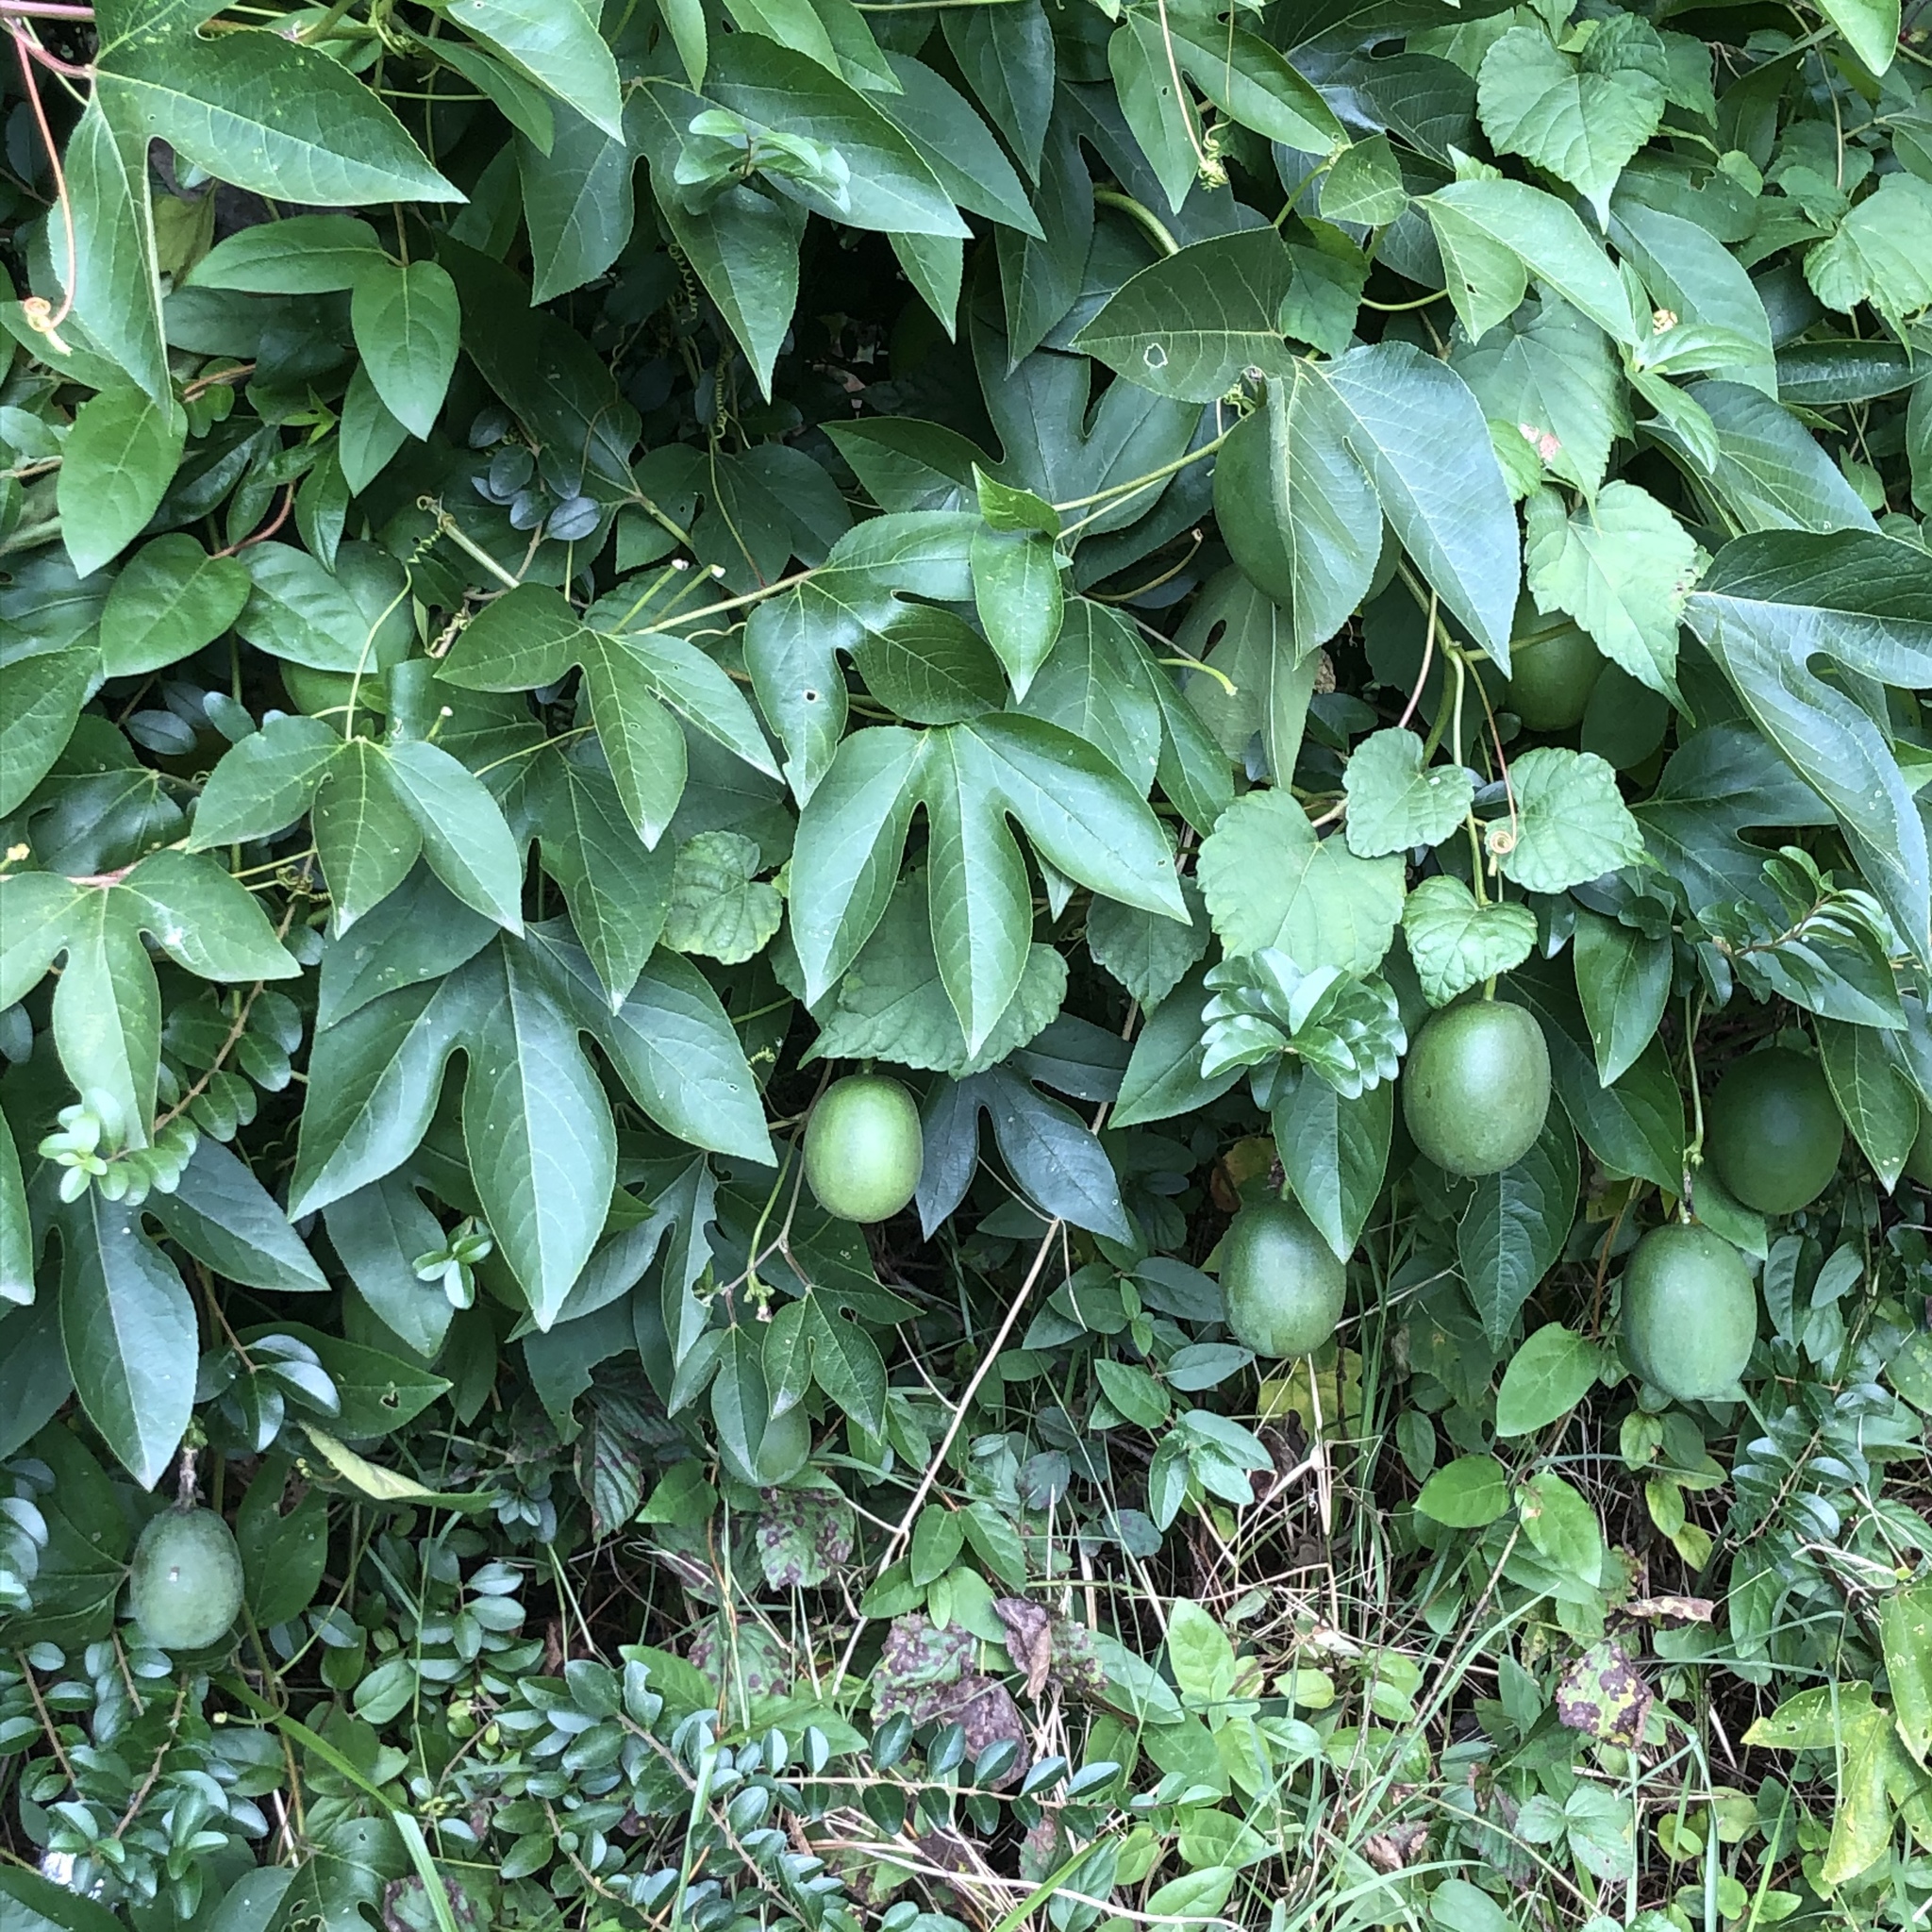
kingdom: Plantae
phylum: Tracheophyta
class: Magnoliopsida
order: Malpighiales
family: Passifloraceae
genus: Passiflora
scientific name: Passiflora incarnata
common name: Apricot-vine
